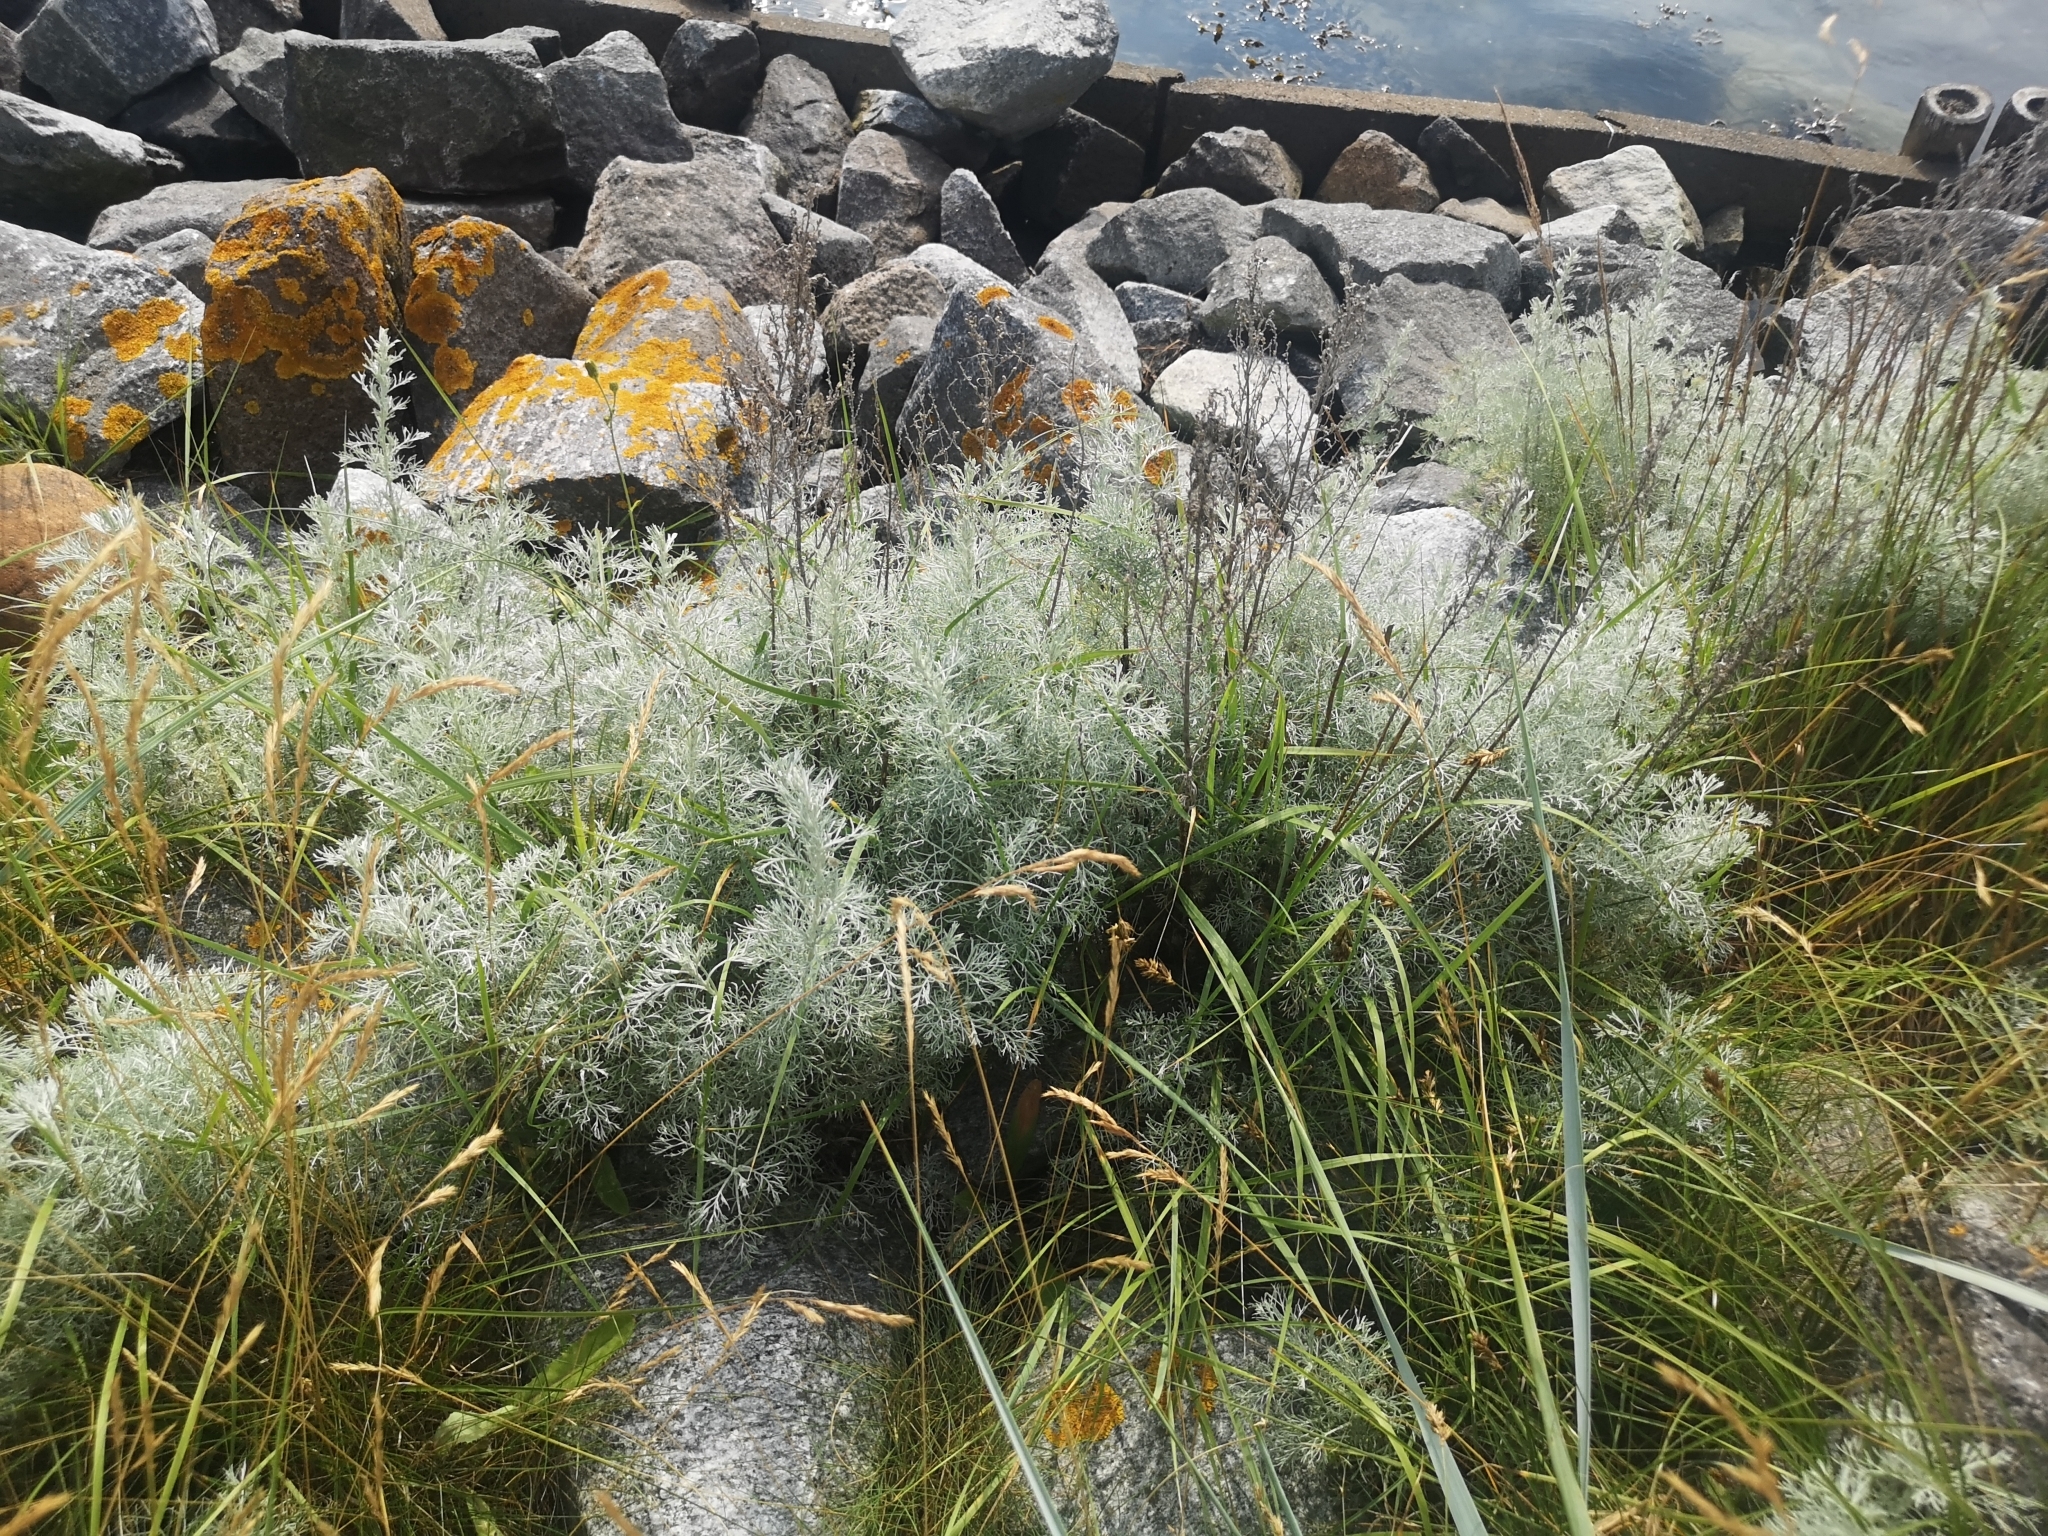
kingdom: Plantae
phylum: Tracheophyta
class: Magnoliopsida
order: Asterales
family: Asteraceae
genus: Artemisia
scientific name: Artemisia maritima
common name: Wormseed
